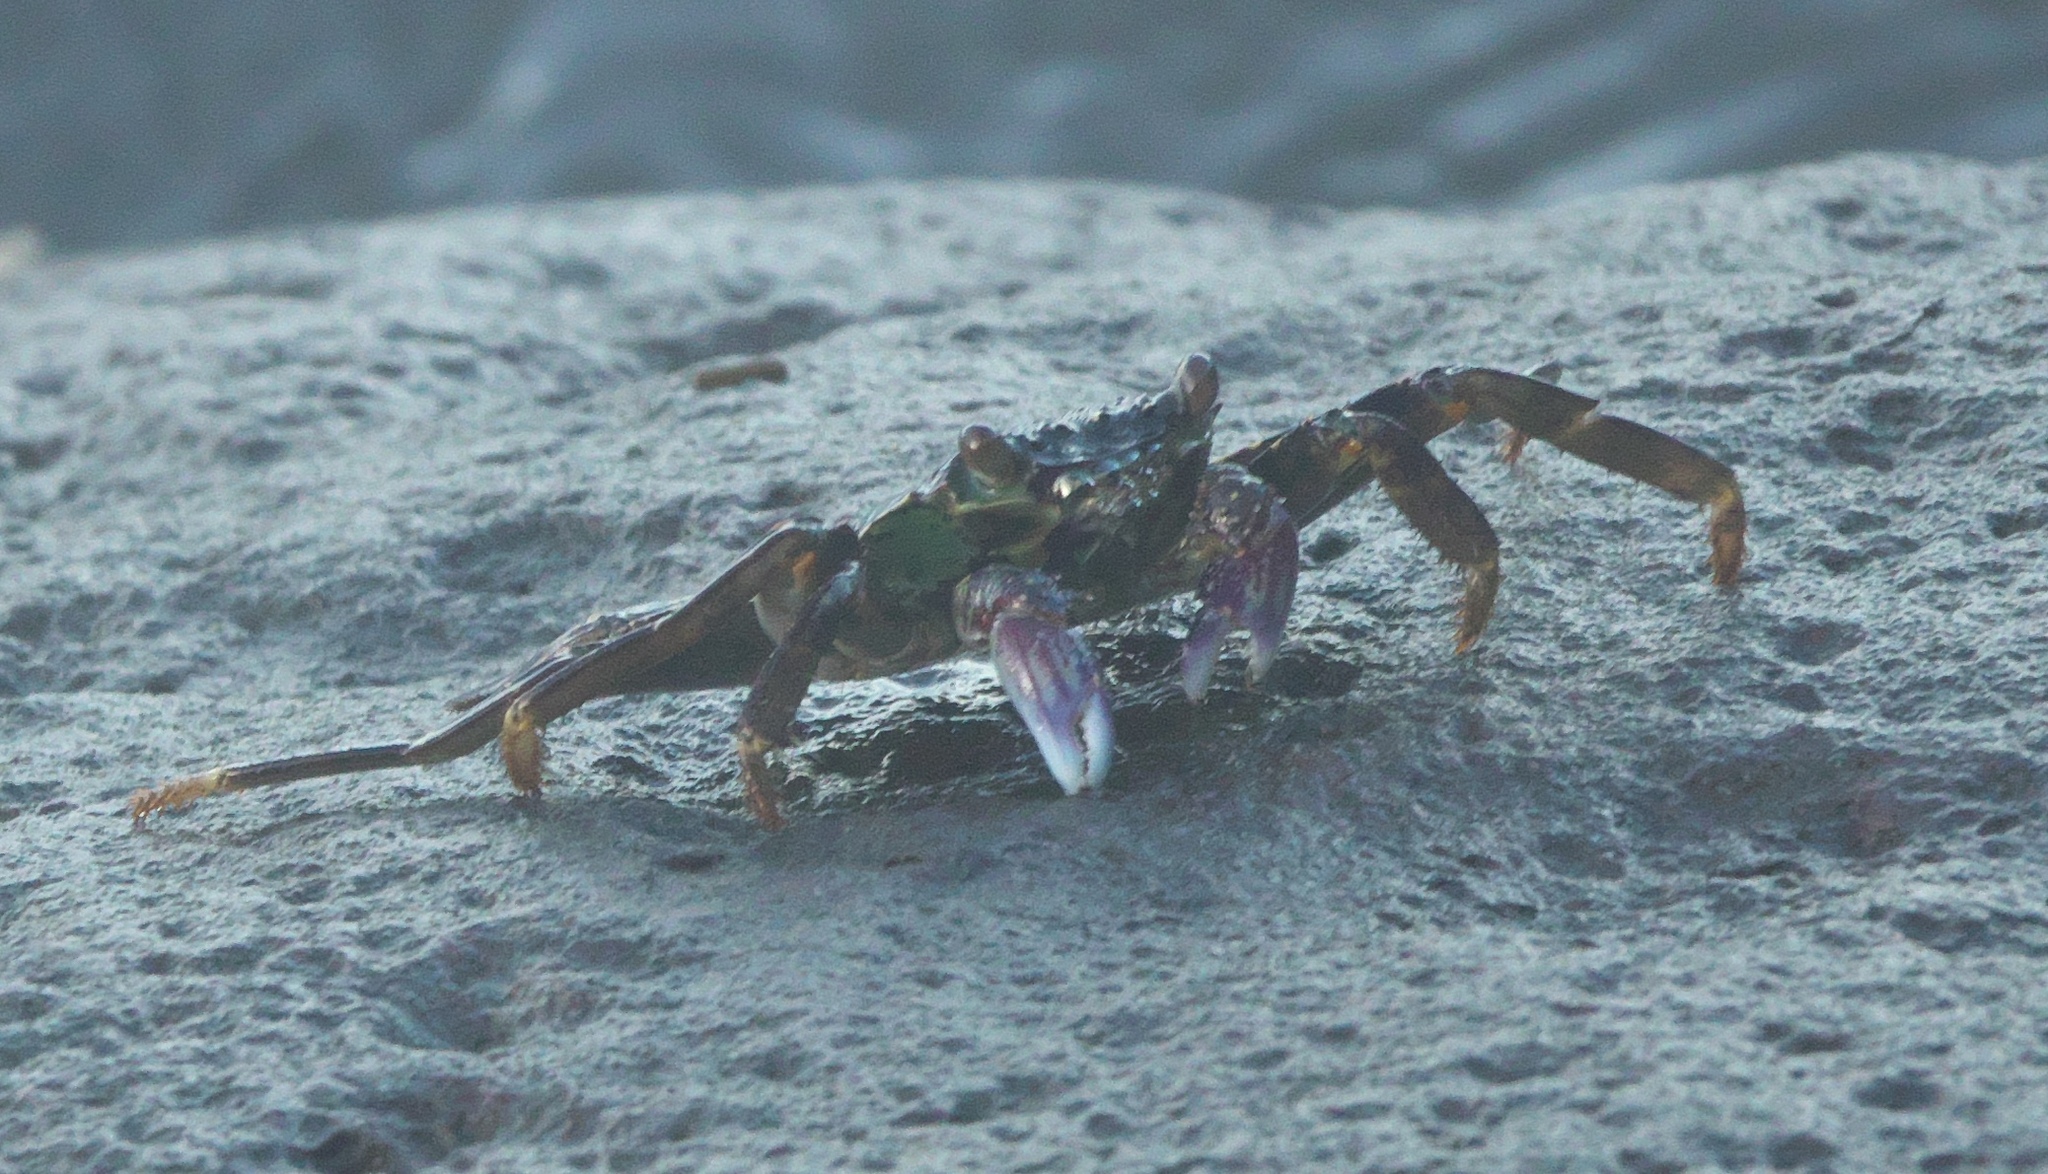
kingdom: Animalia
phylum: Arthropoda
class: Malacostraca
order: Decapoda
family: Grapsidae
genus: Grapsus
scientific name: Grapsus albolineatus
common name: Mottled lightfoot crab
